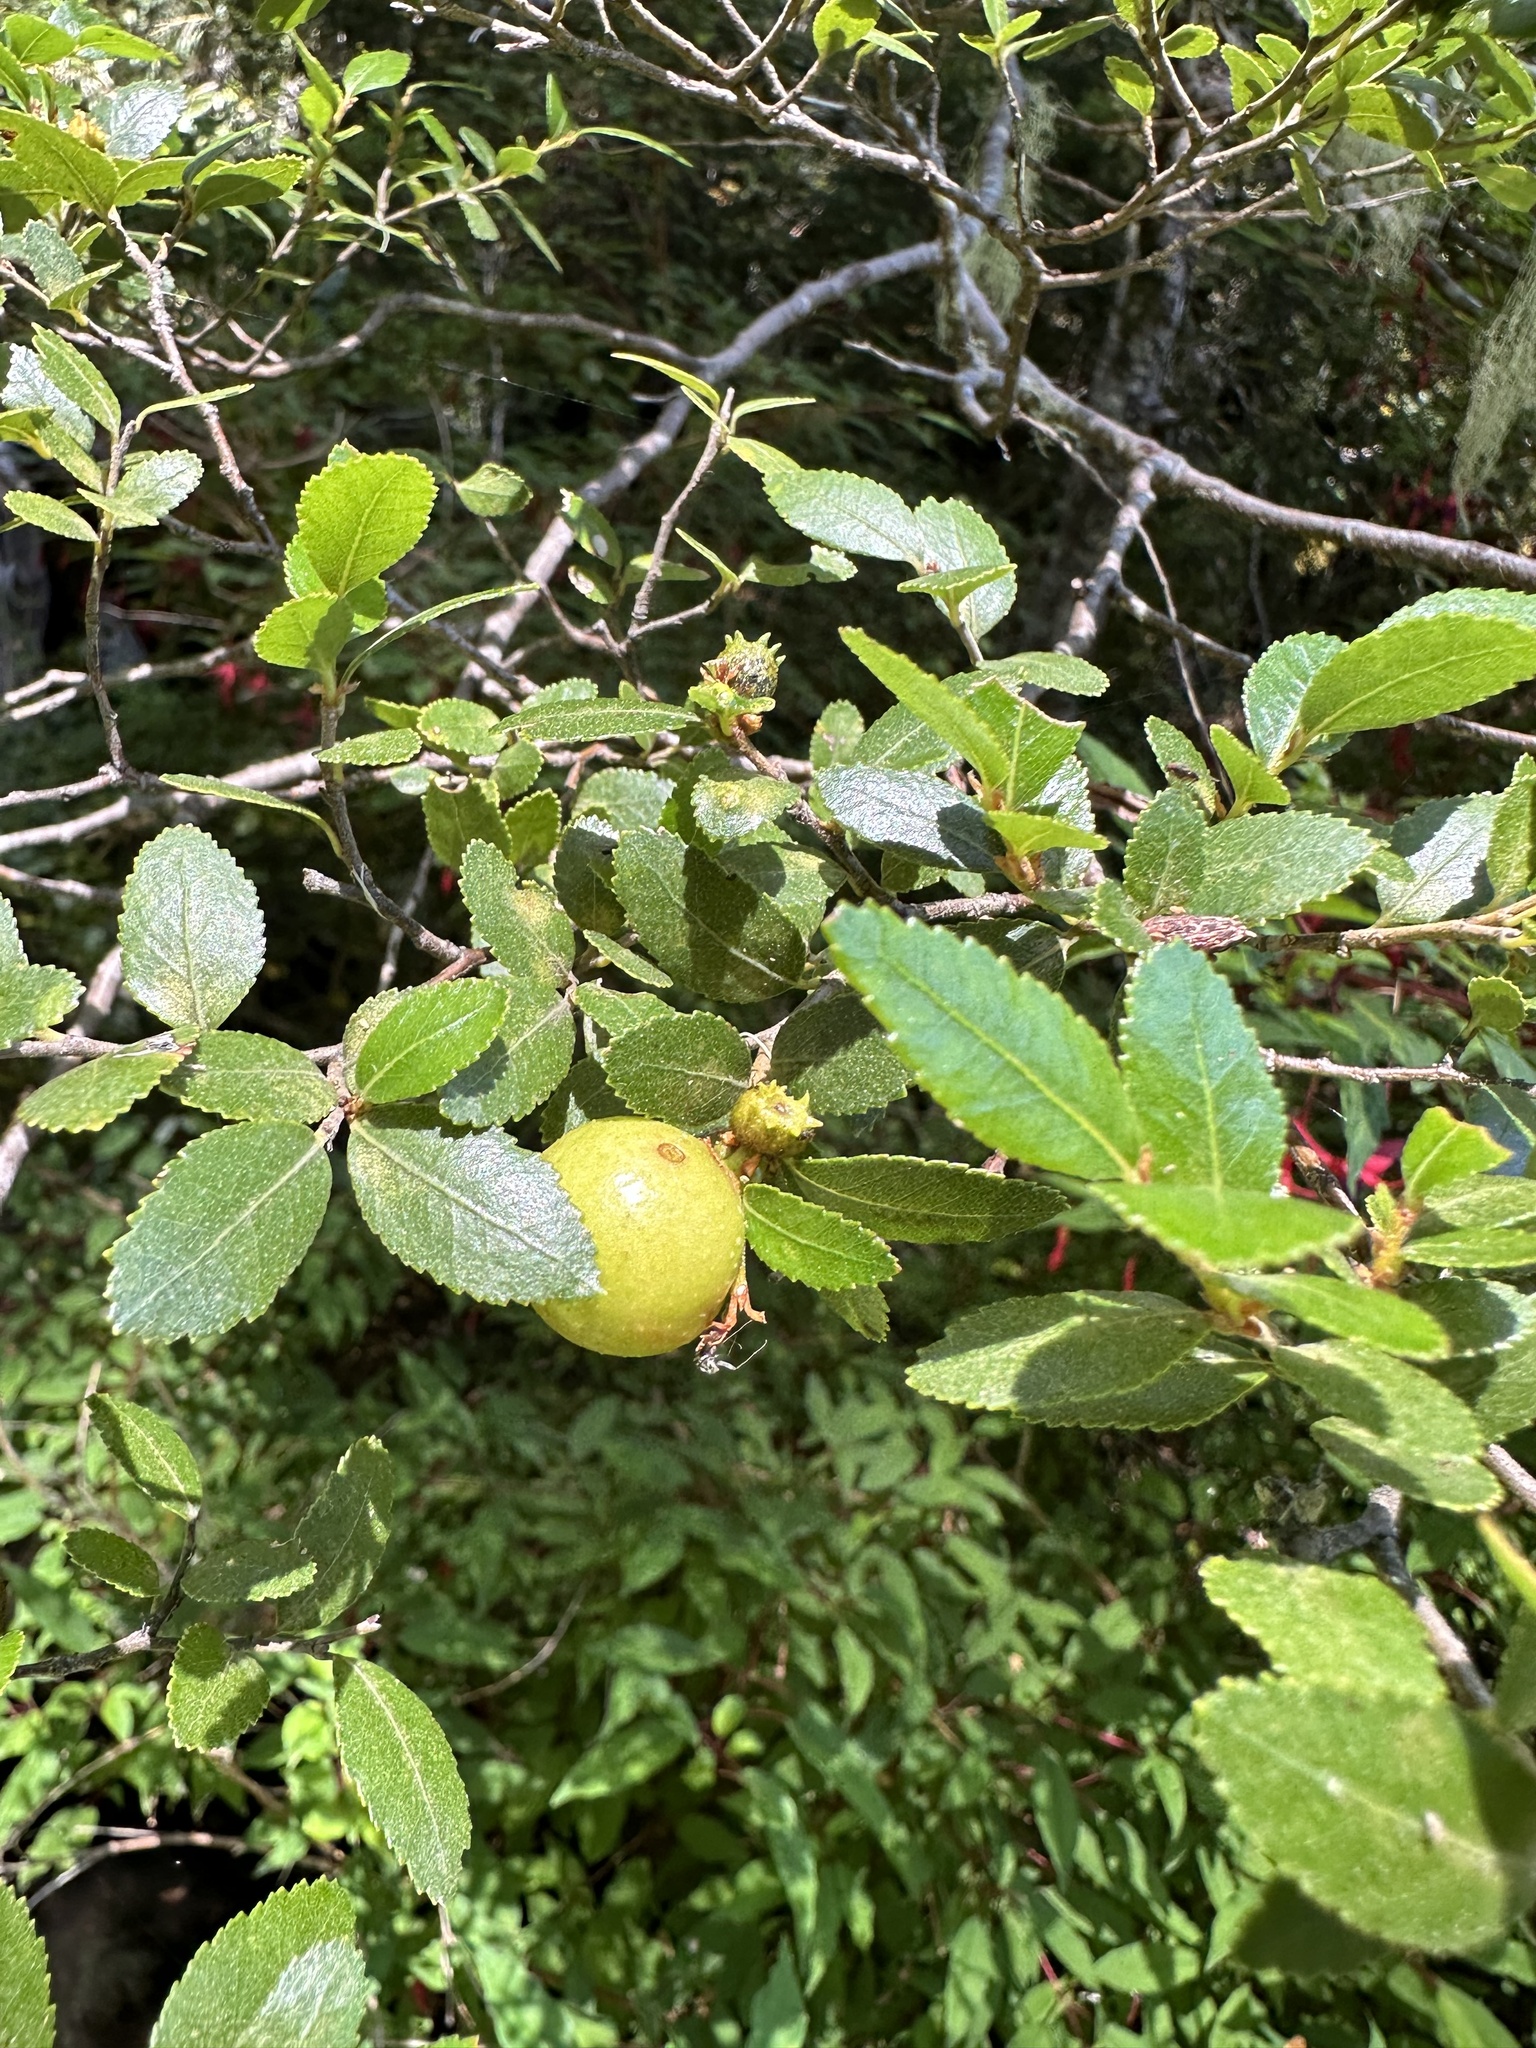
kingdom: Animalia
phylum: Arthropoda
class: Insecta
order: Hymenoptera
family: Pteromalidae
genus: Aditrochus
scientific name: Aditrochus coihuensis
